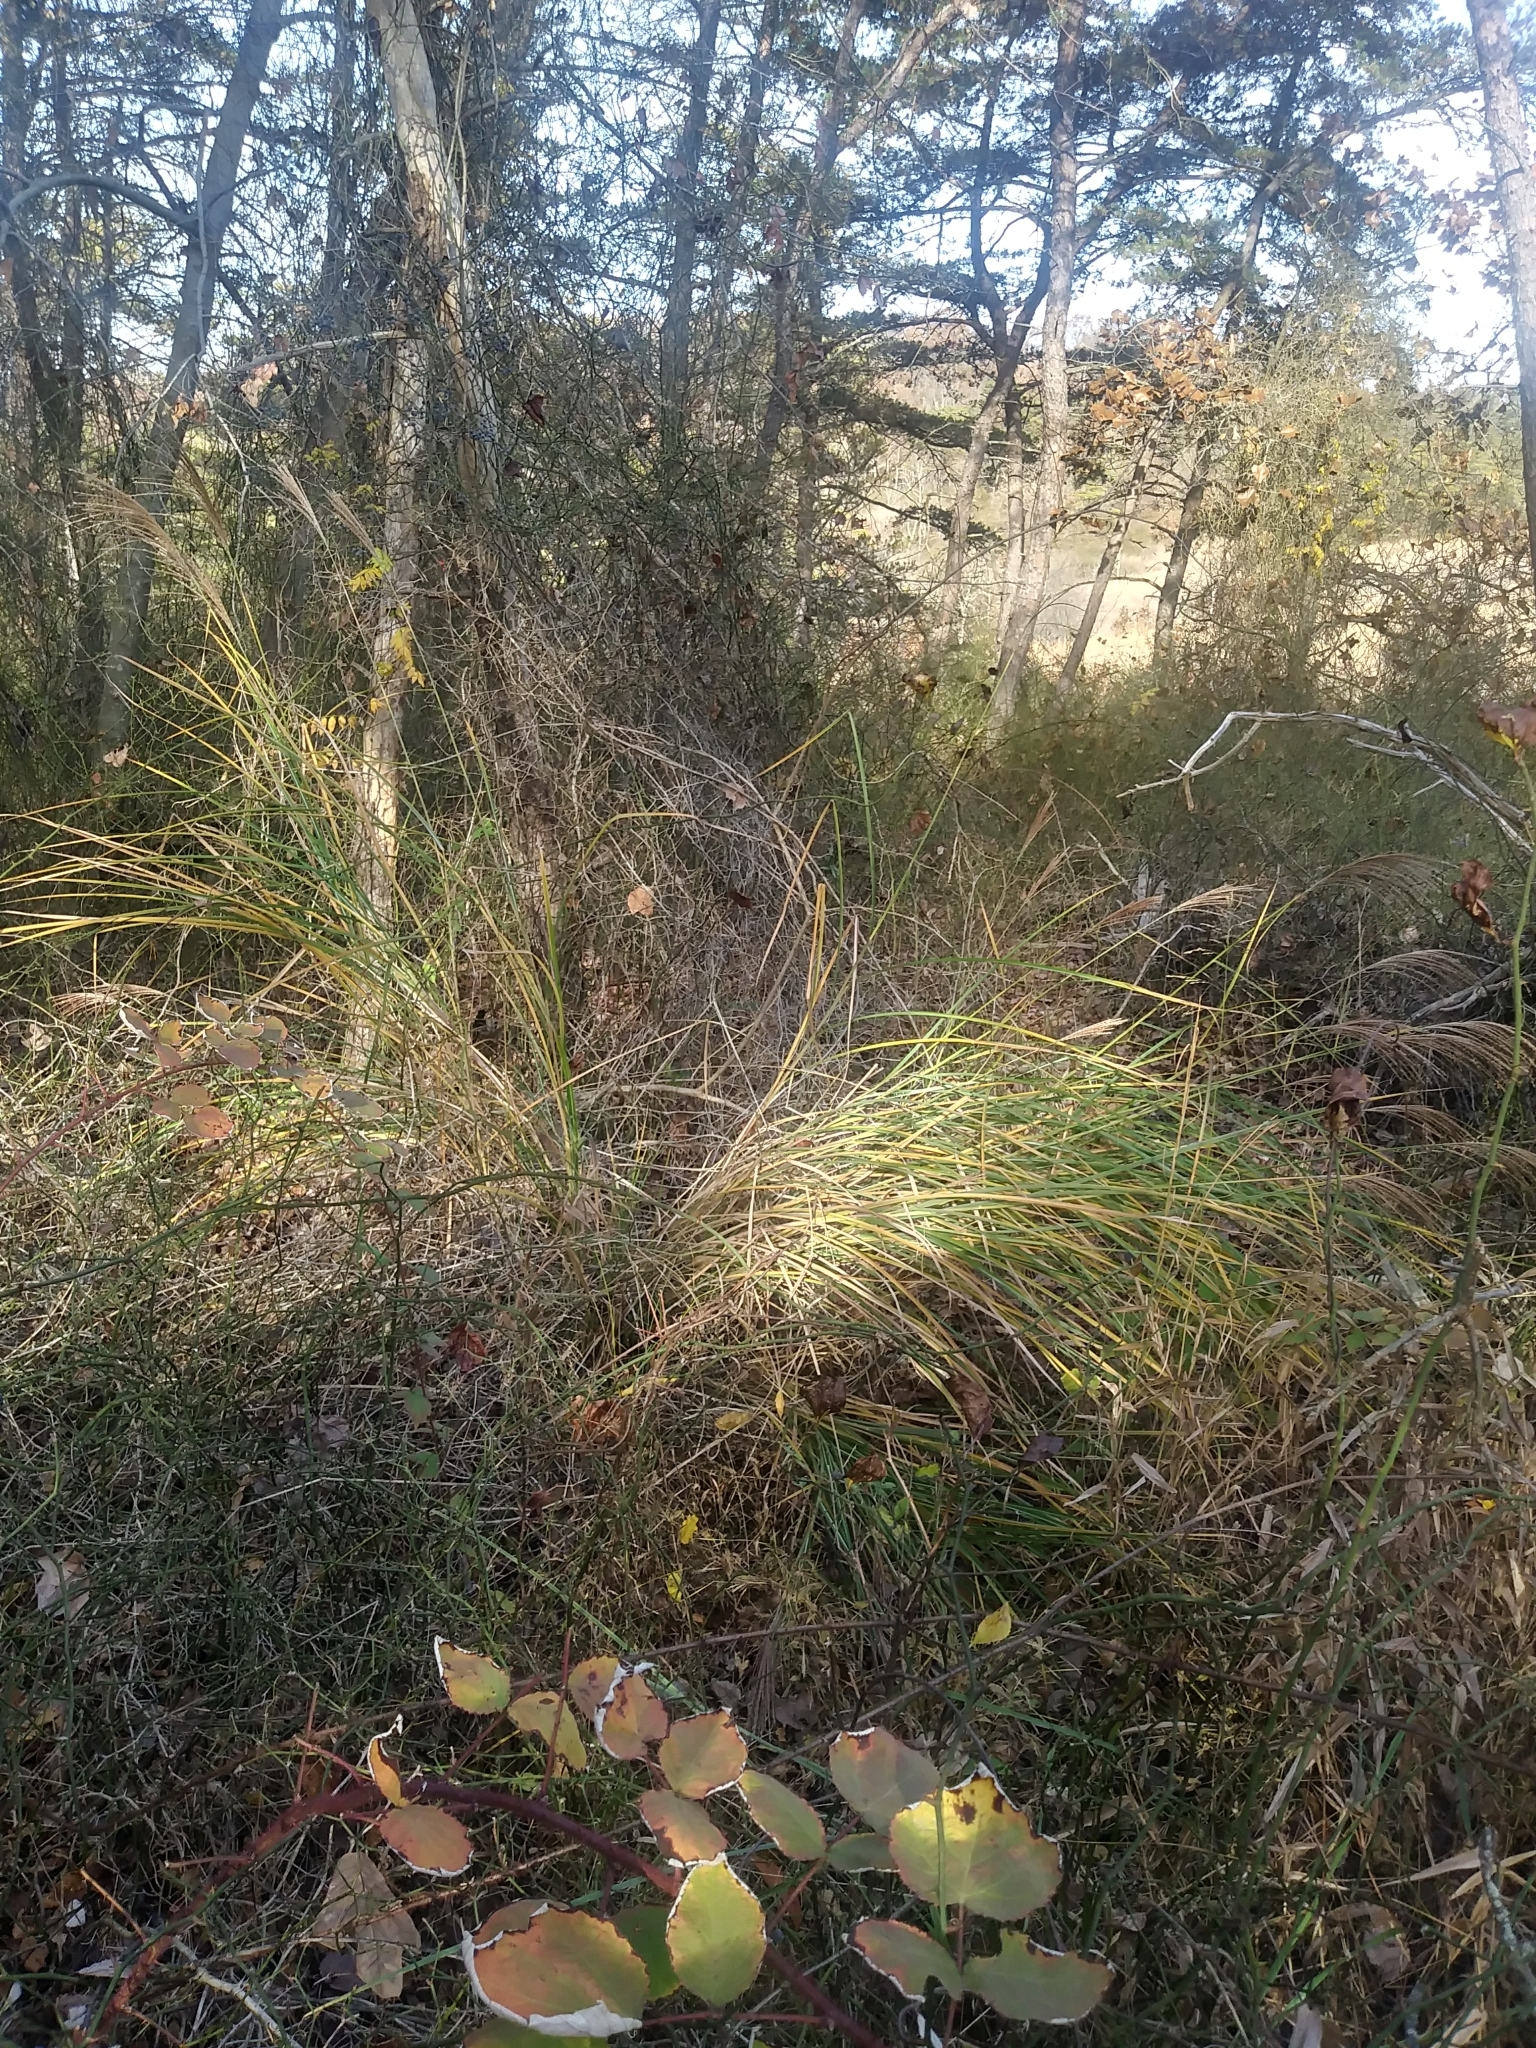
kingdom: Plantae
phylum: Tracheophyta
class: Liliopsida
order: Poales
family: Poaceae
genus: Miscanthus
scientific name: Miscanthus sinensis
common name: Chinese silvergrass
